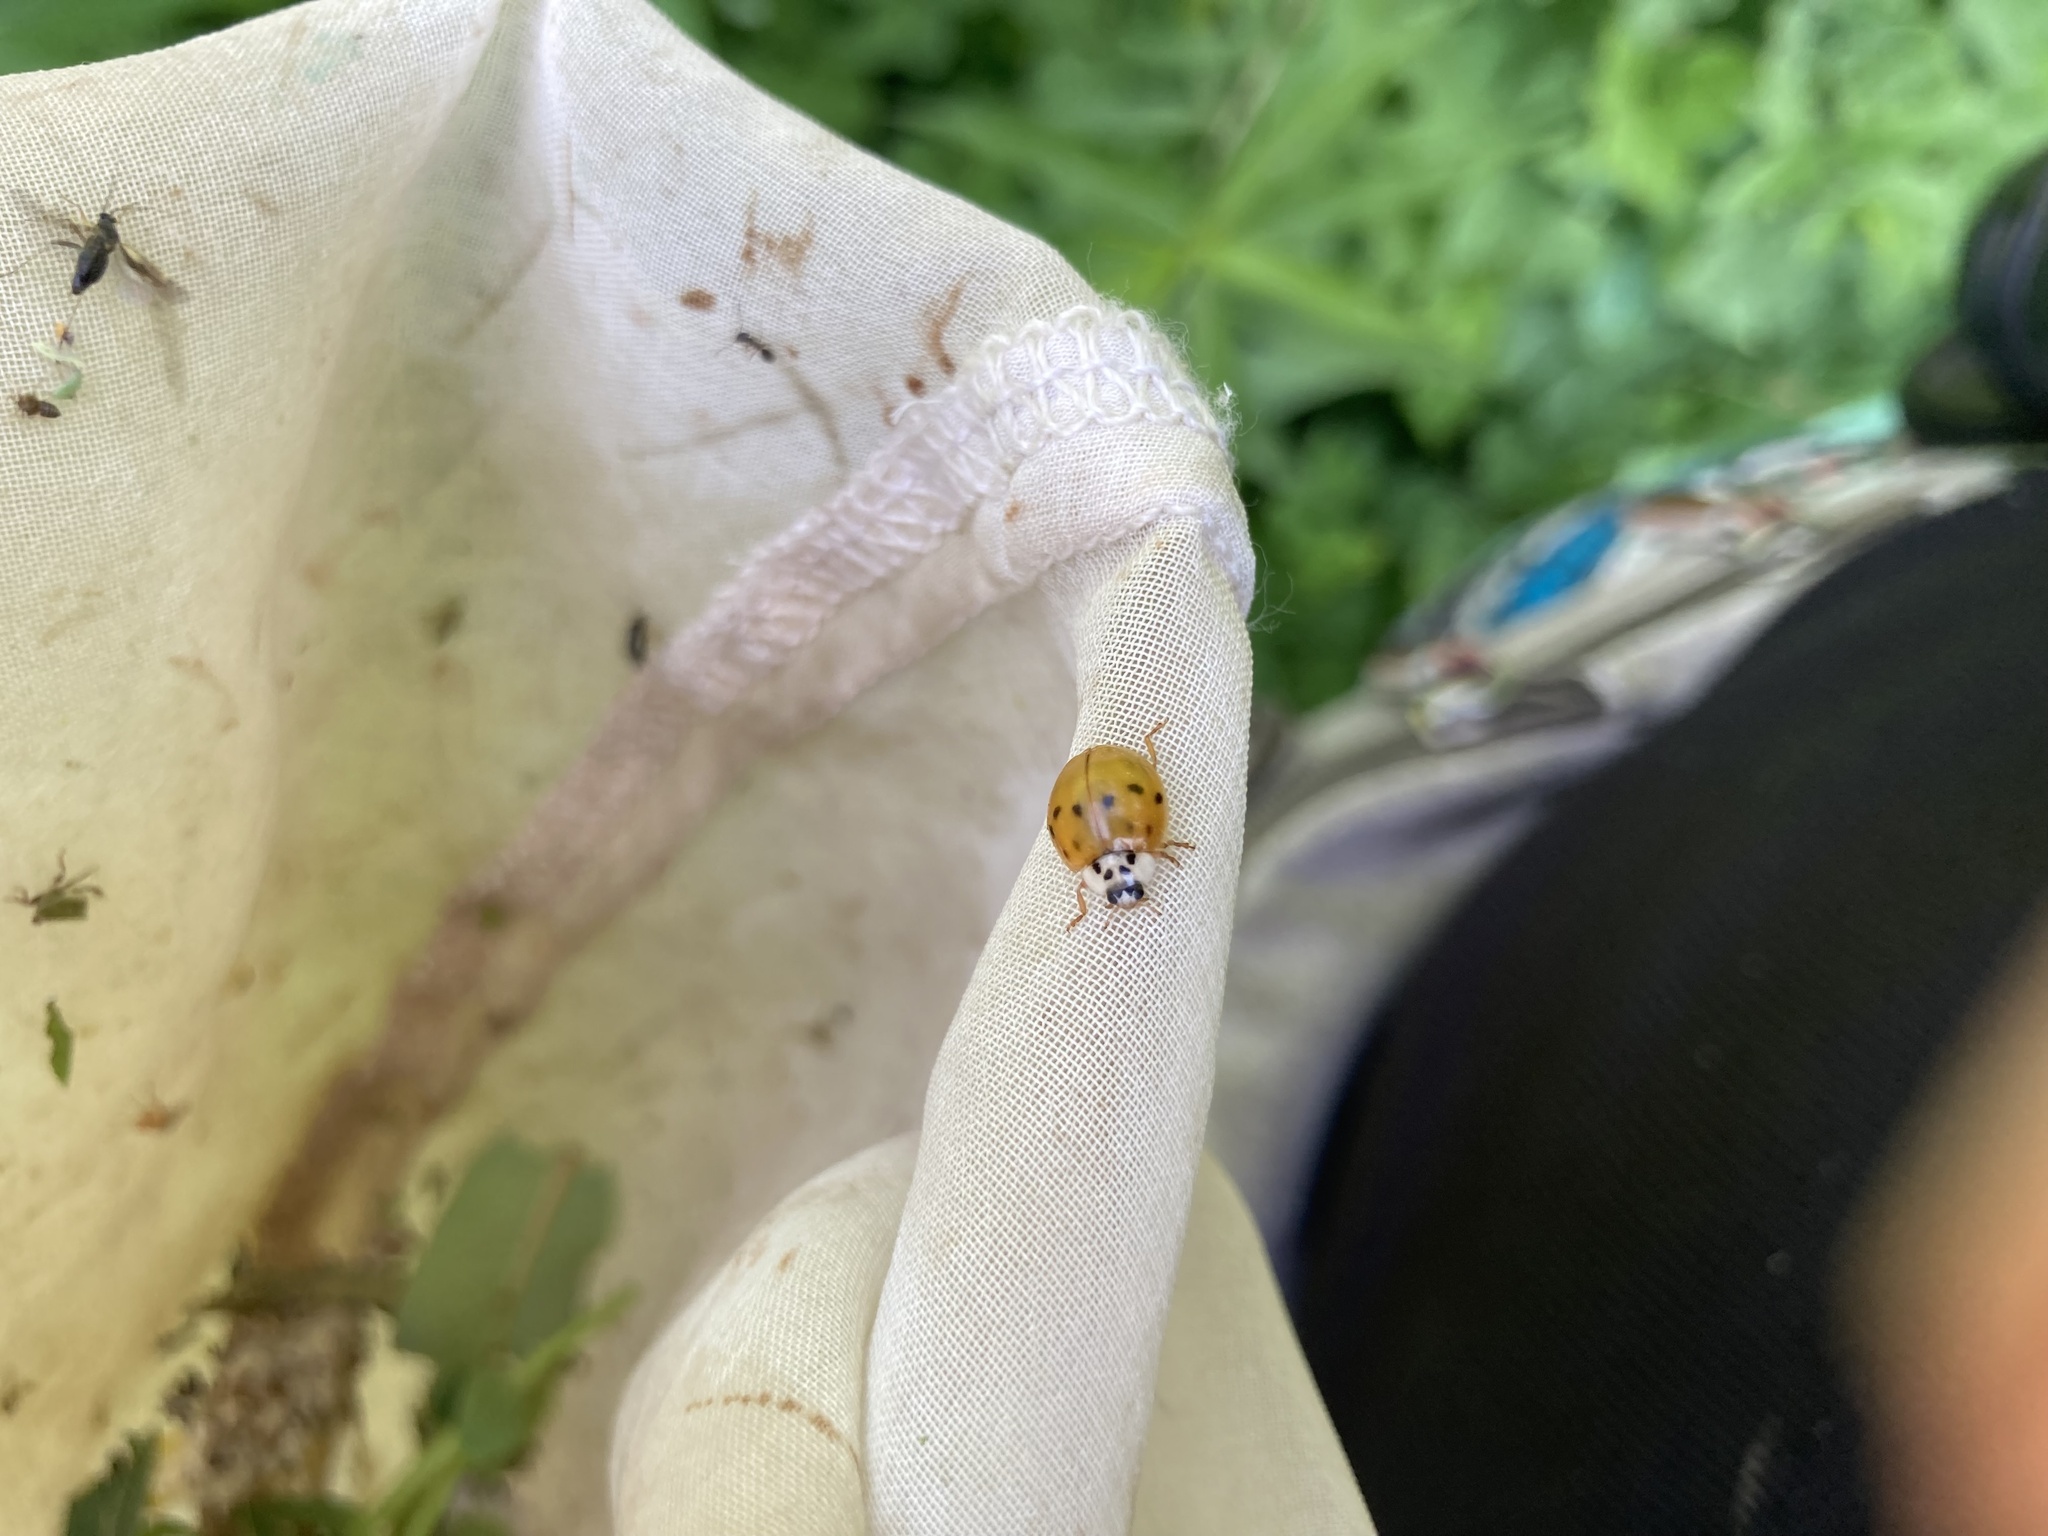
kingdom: Animalia
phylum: Arthropoda
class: Insecta
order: Coleoptera
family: Coccinellidae
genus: Harmonia
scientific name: Harmonia axyridis
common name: Harlequin ladybird
